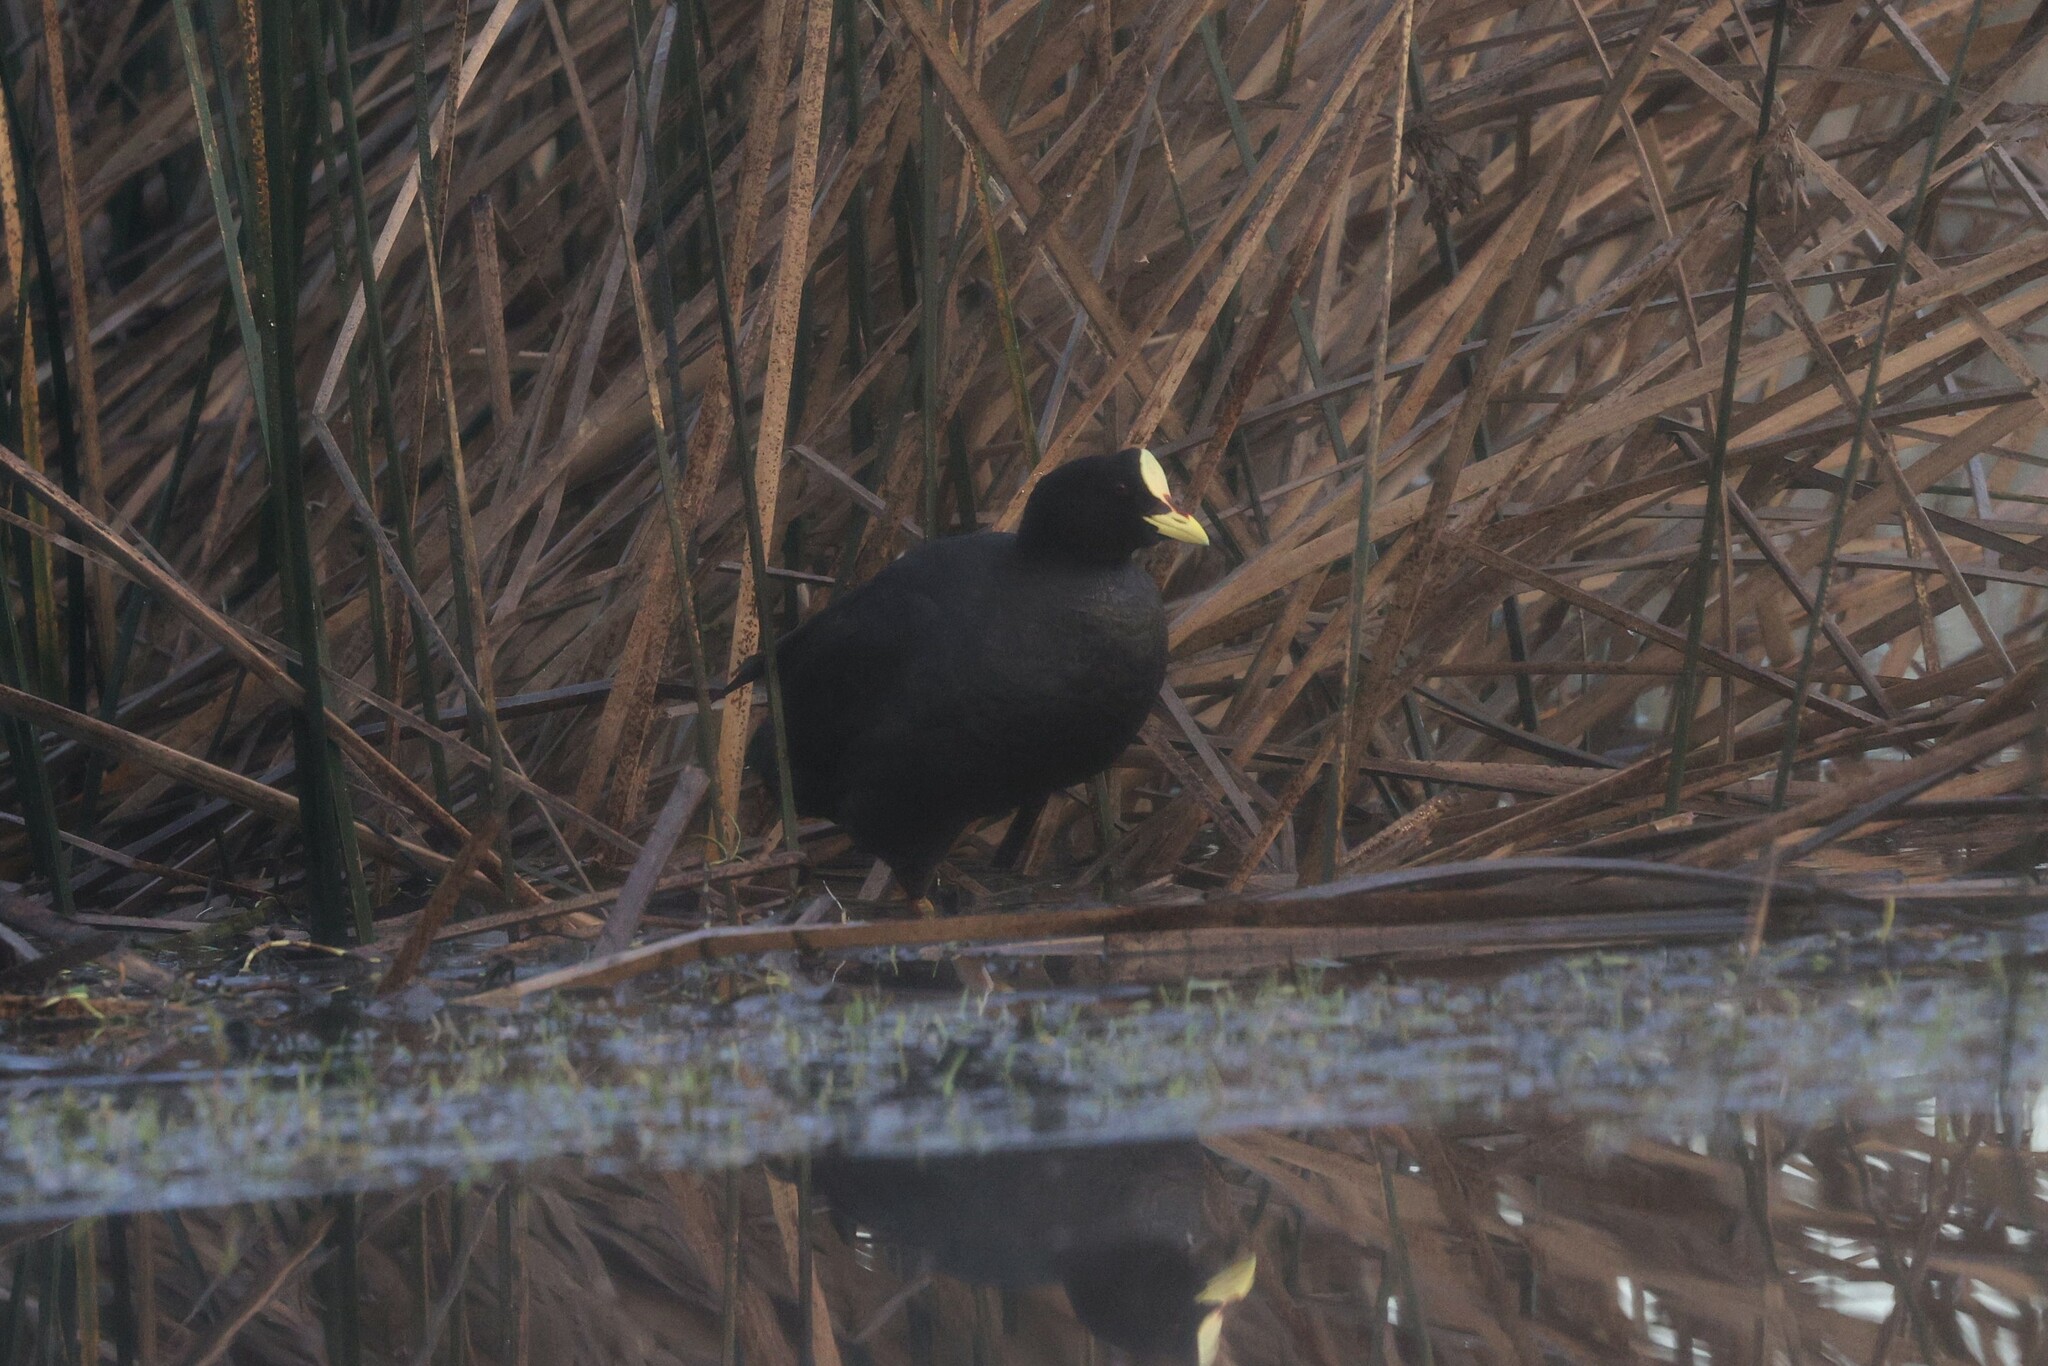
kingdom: Animalia
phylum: Chordata
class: Aves
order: Gruiformes
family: Rallidae
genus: Fulica
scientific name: Fulica armillata
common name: Red-gartered coot
